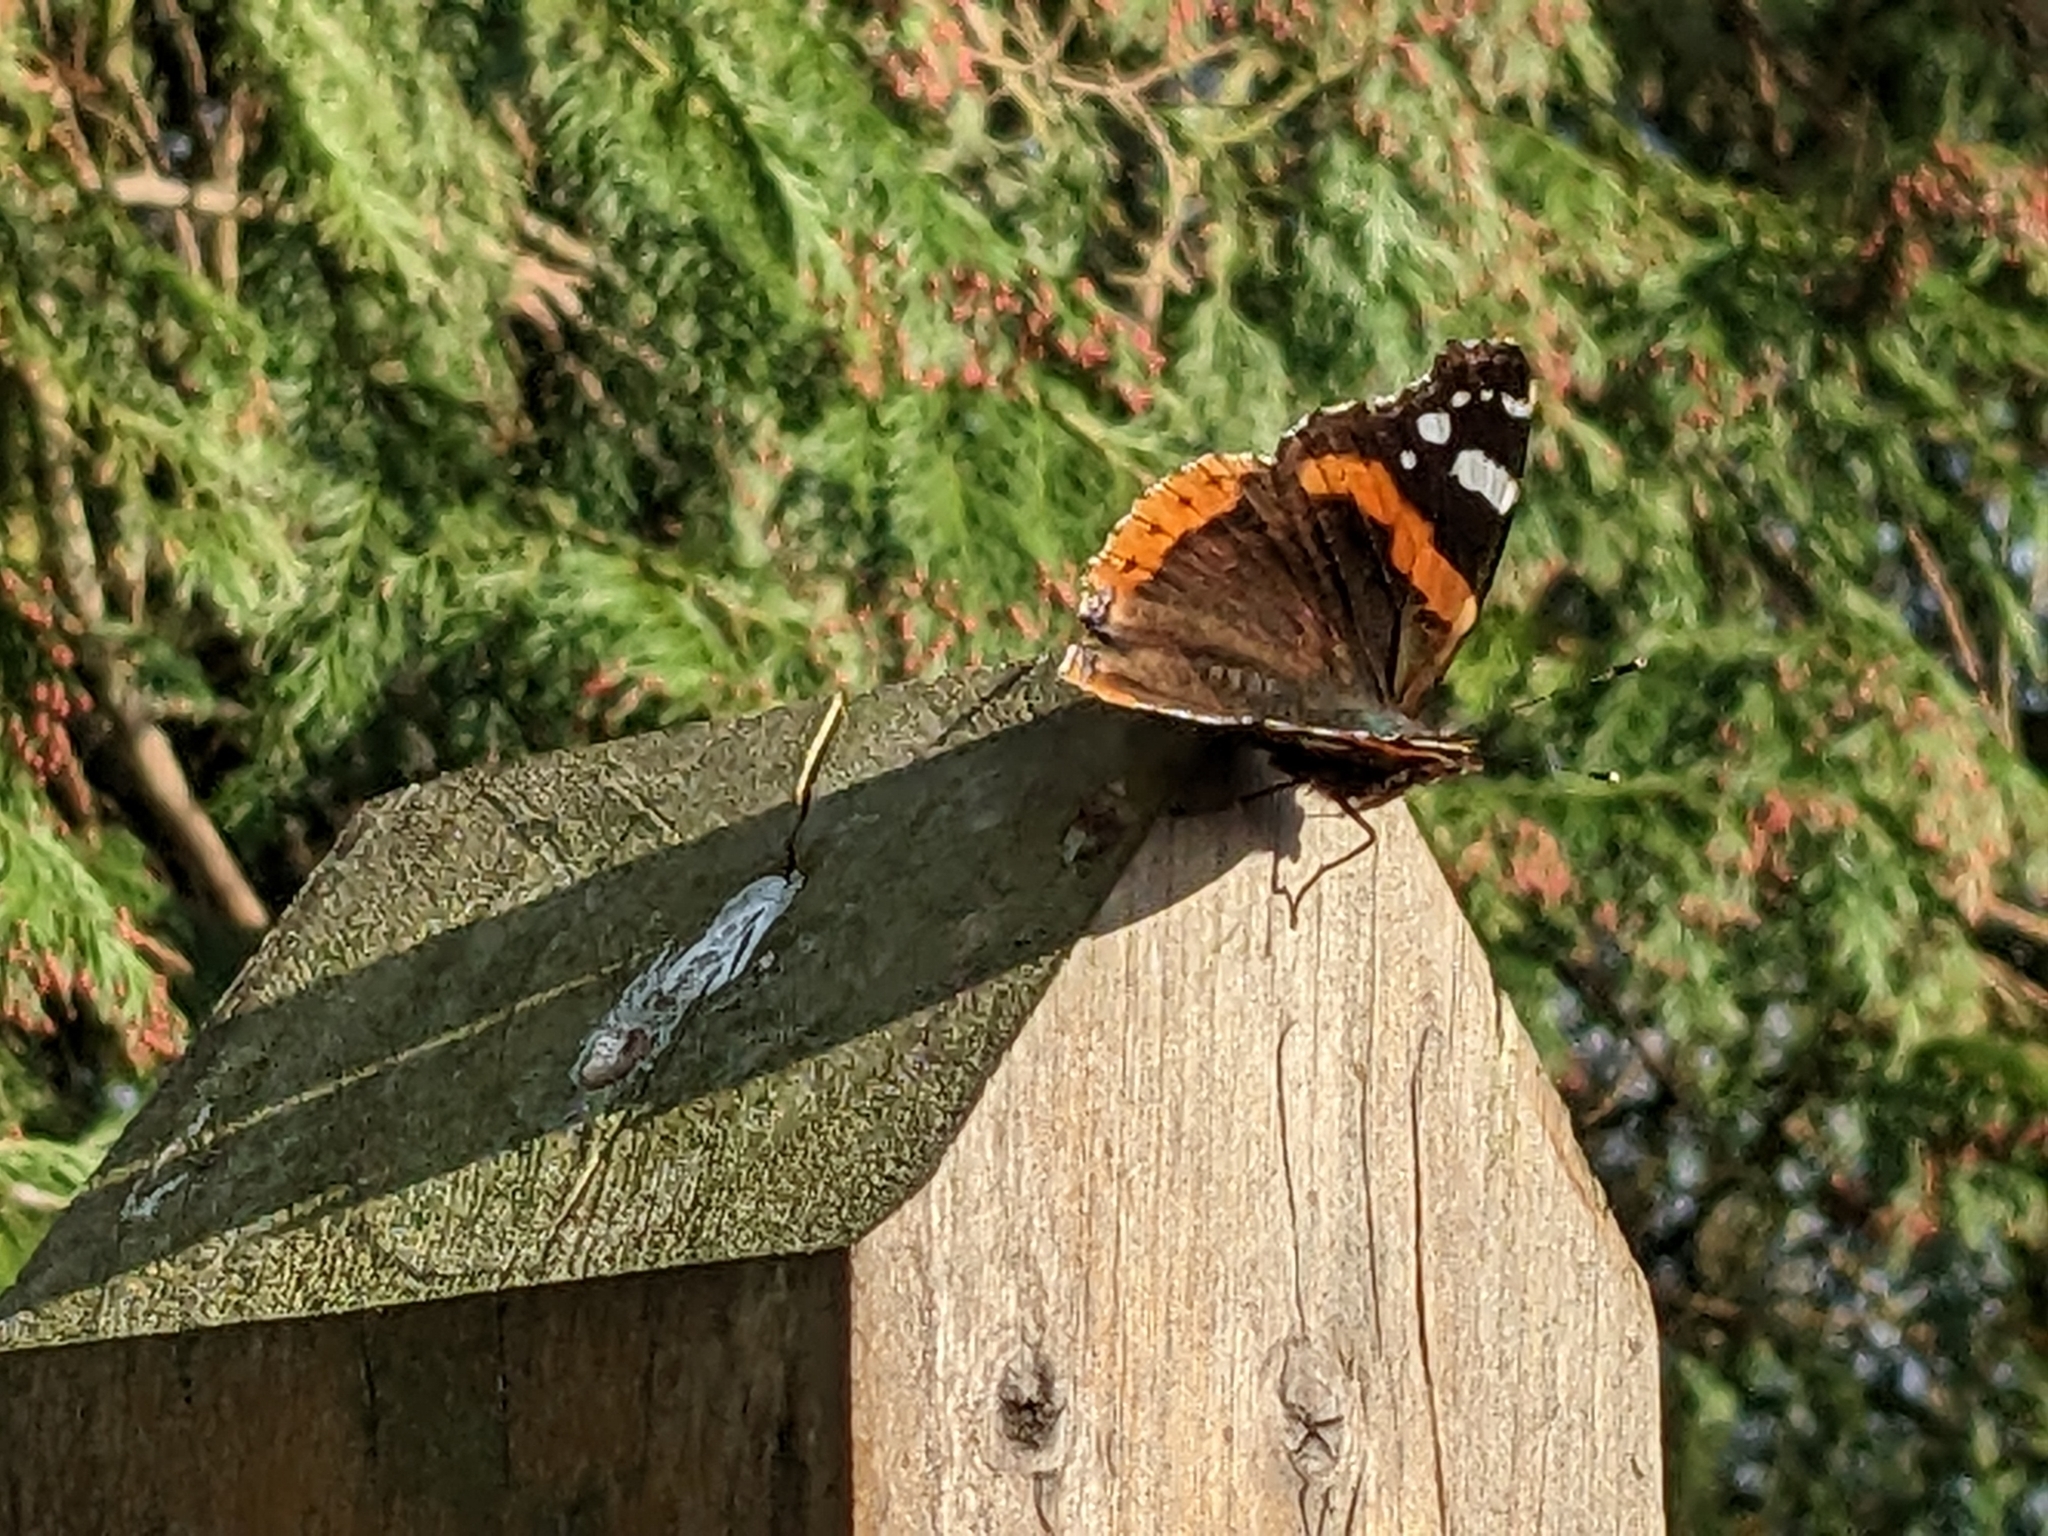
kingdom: Animalia
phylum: Arthropoda
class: Insecta
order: Lepidoptera
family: Nymphalidae
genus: Vanessa
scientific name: Vanessa atalanta
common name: Red admiral
